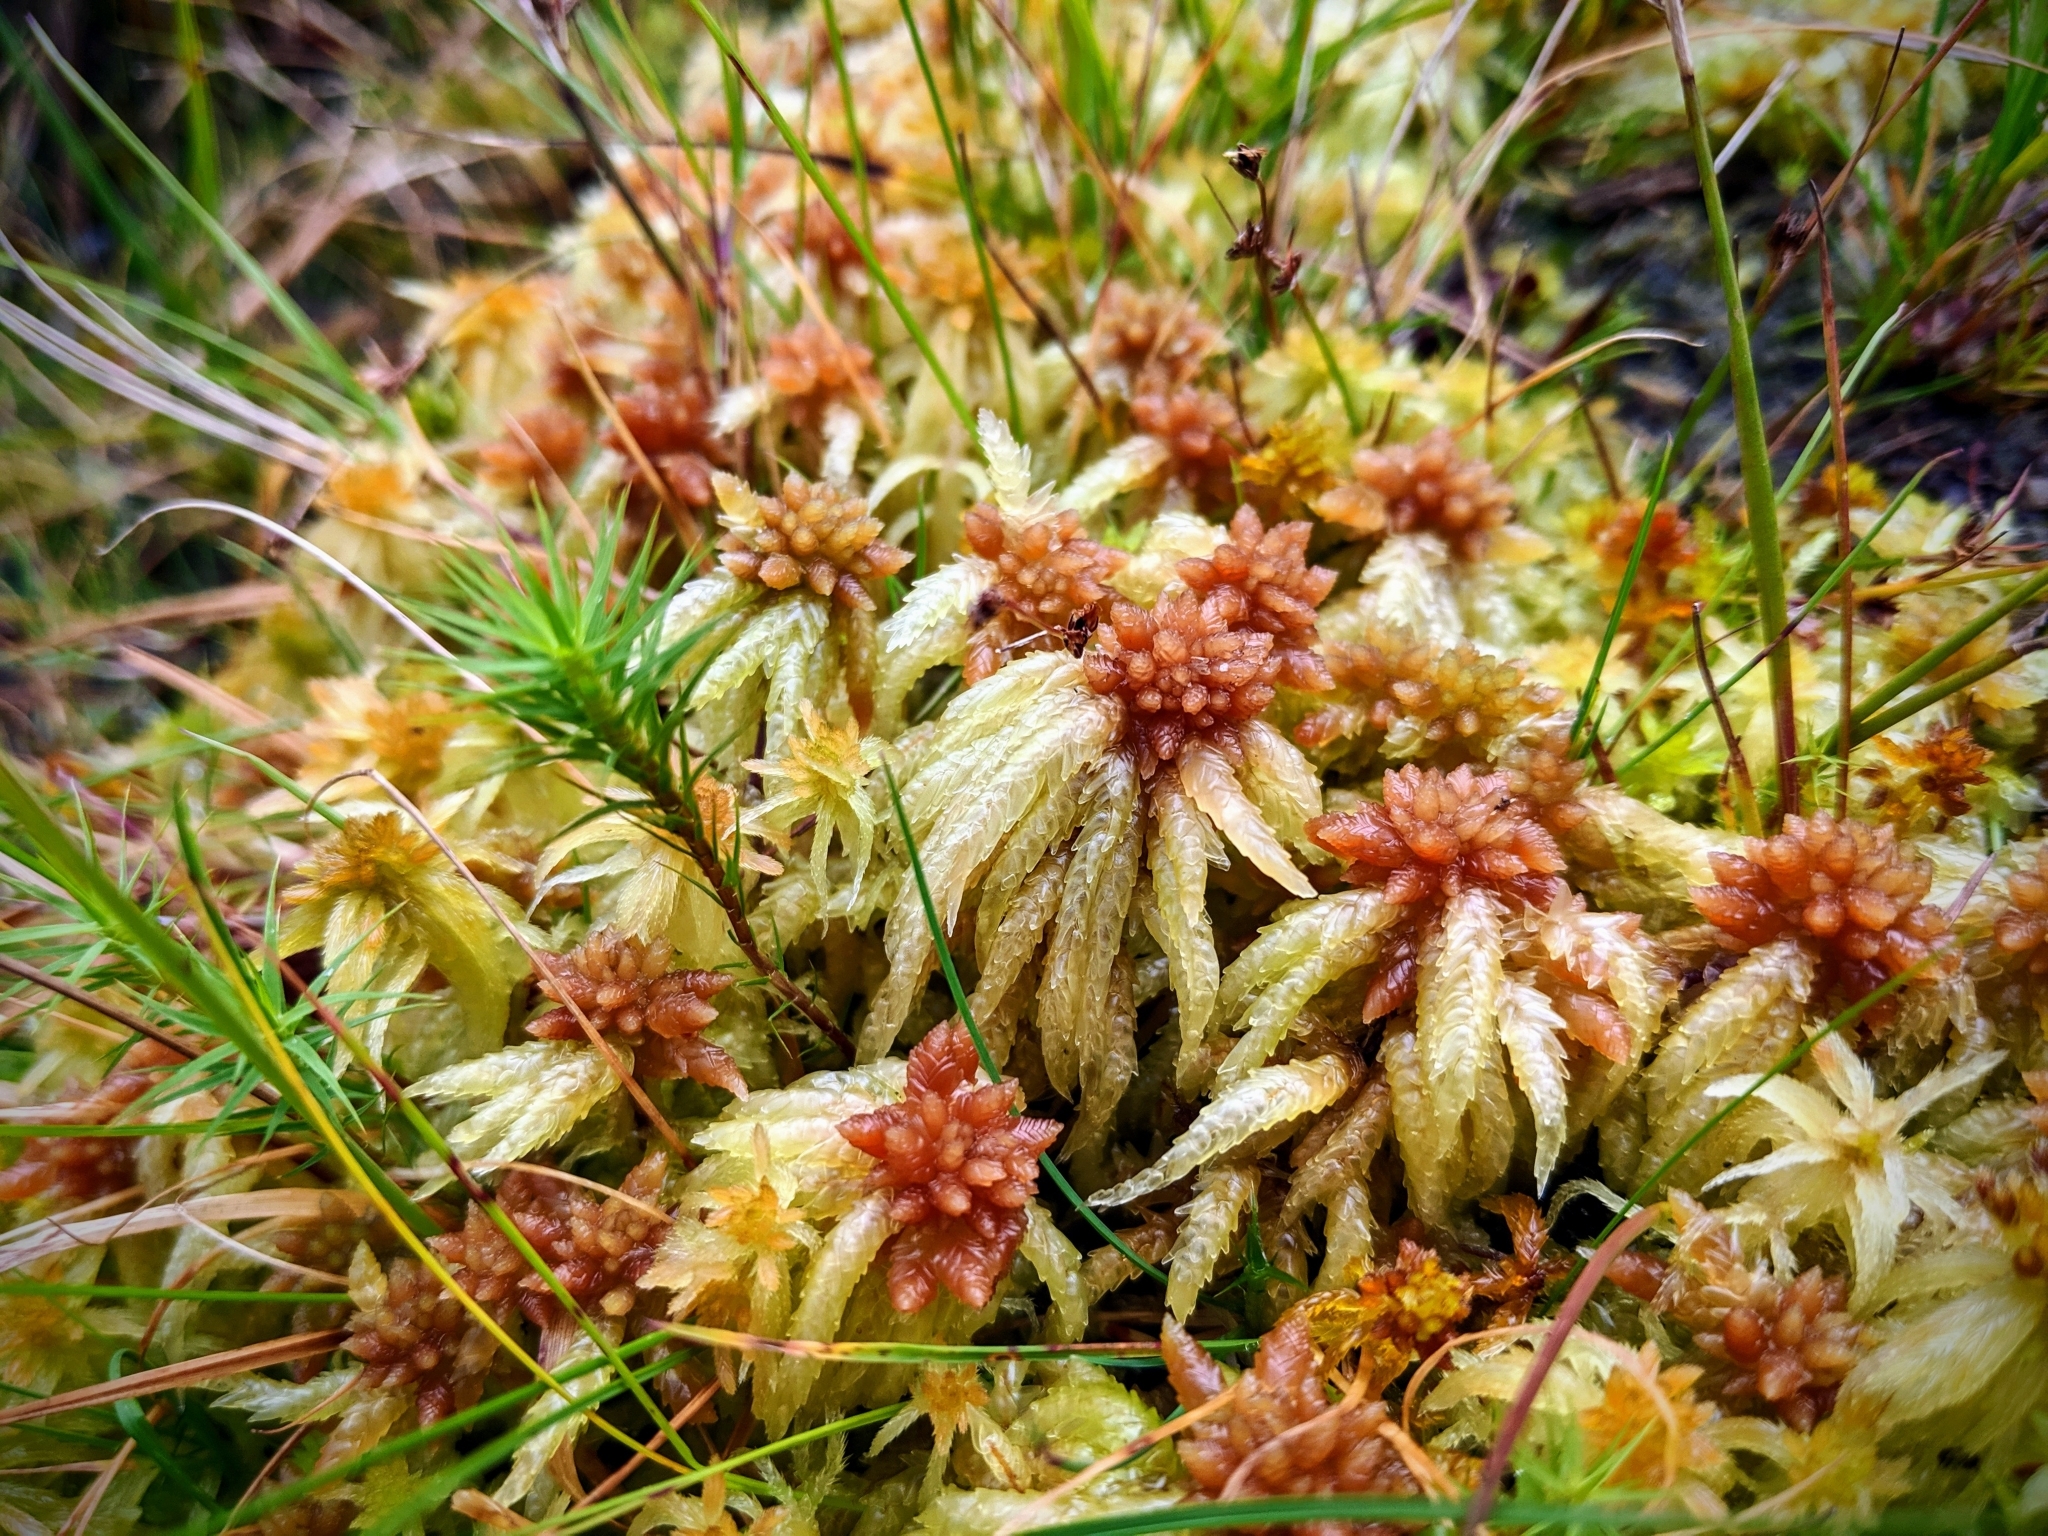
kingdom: Plantae
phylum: Bryophyta
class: Sphagnopsida
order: Sphagnales
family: Sphagnaceae
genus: Sphagnum
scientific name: Sphagnum palustre
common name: Blunt-leaved bog-moss
